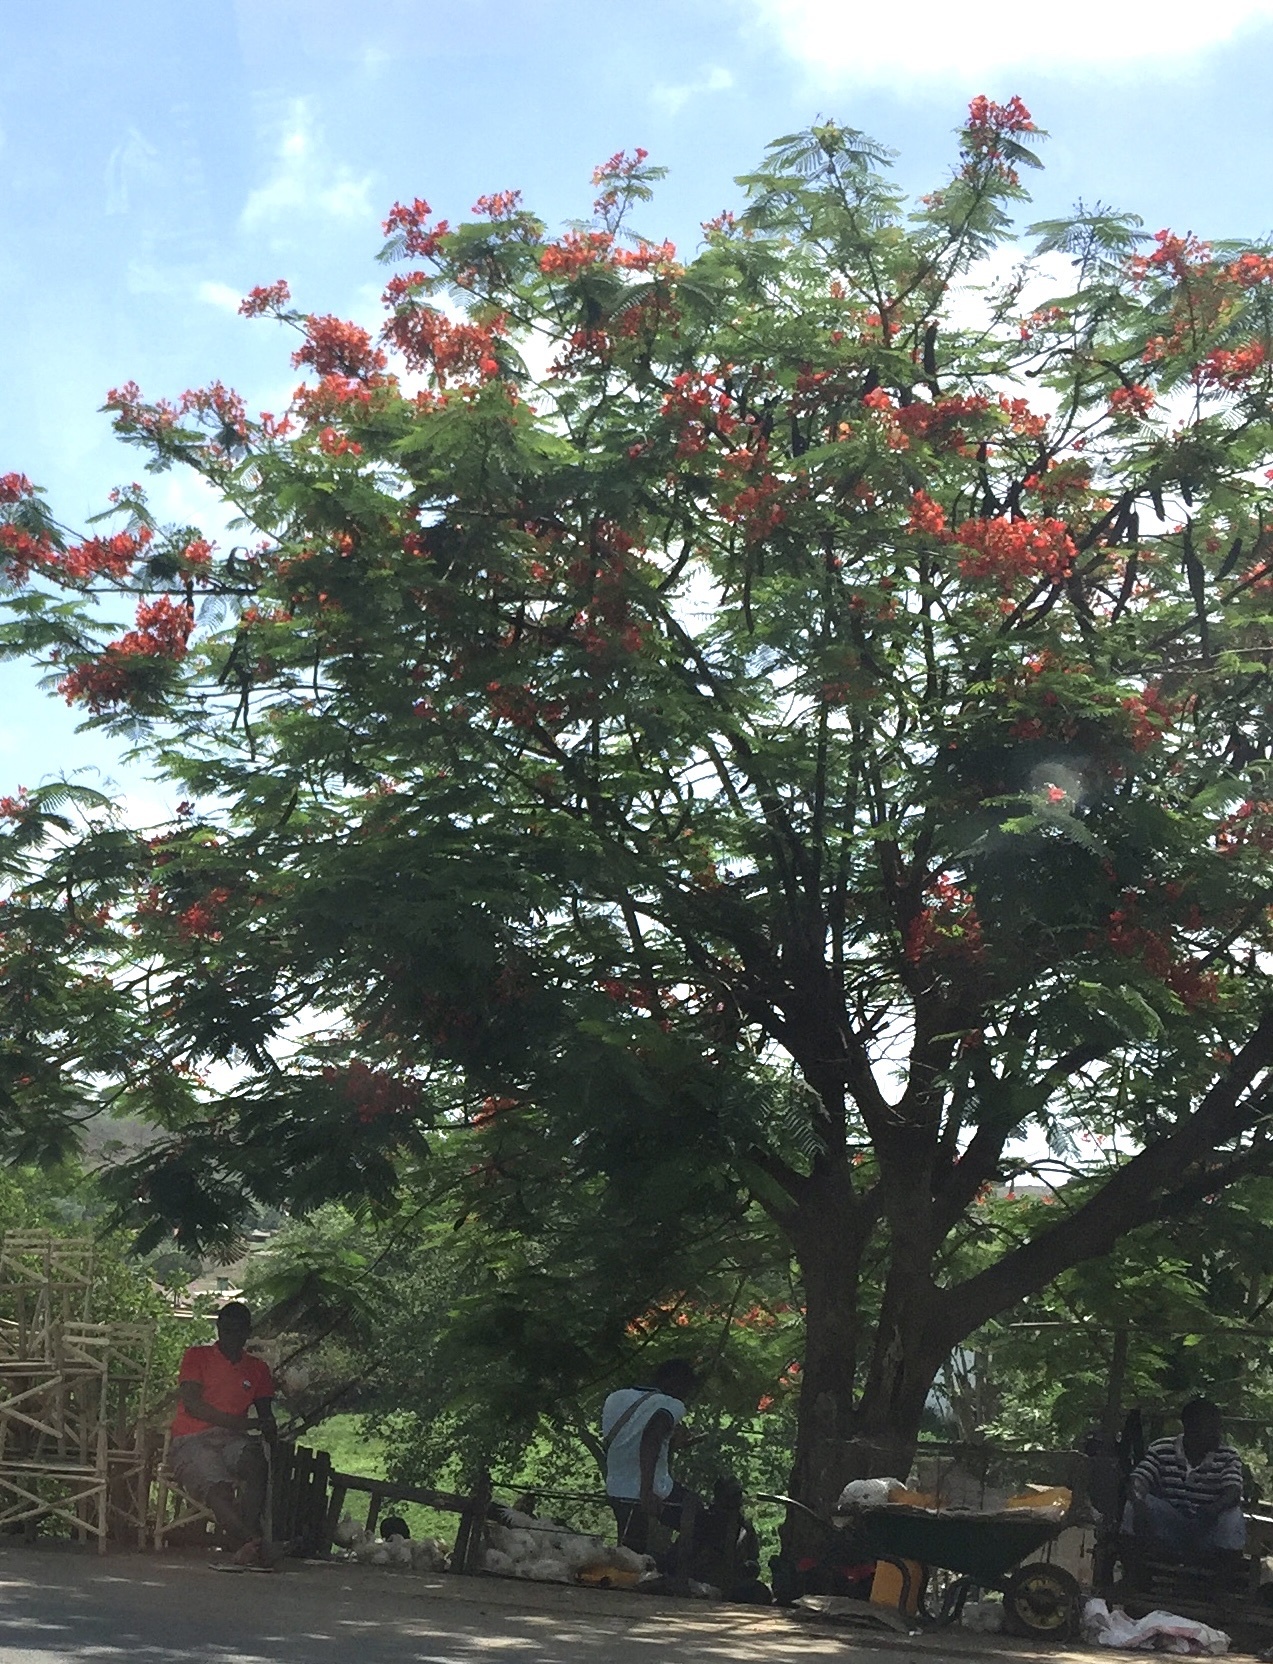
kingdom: Plantae
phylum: Tracheophyta
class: Magnoliopsida
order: Fabales
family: Fabaceae
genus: Delonix
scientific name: Delonix regia
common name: Royal poinciana
